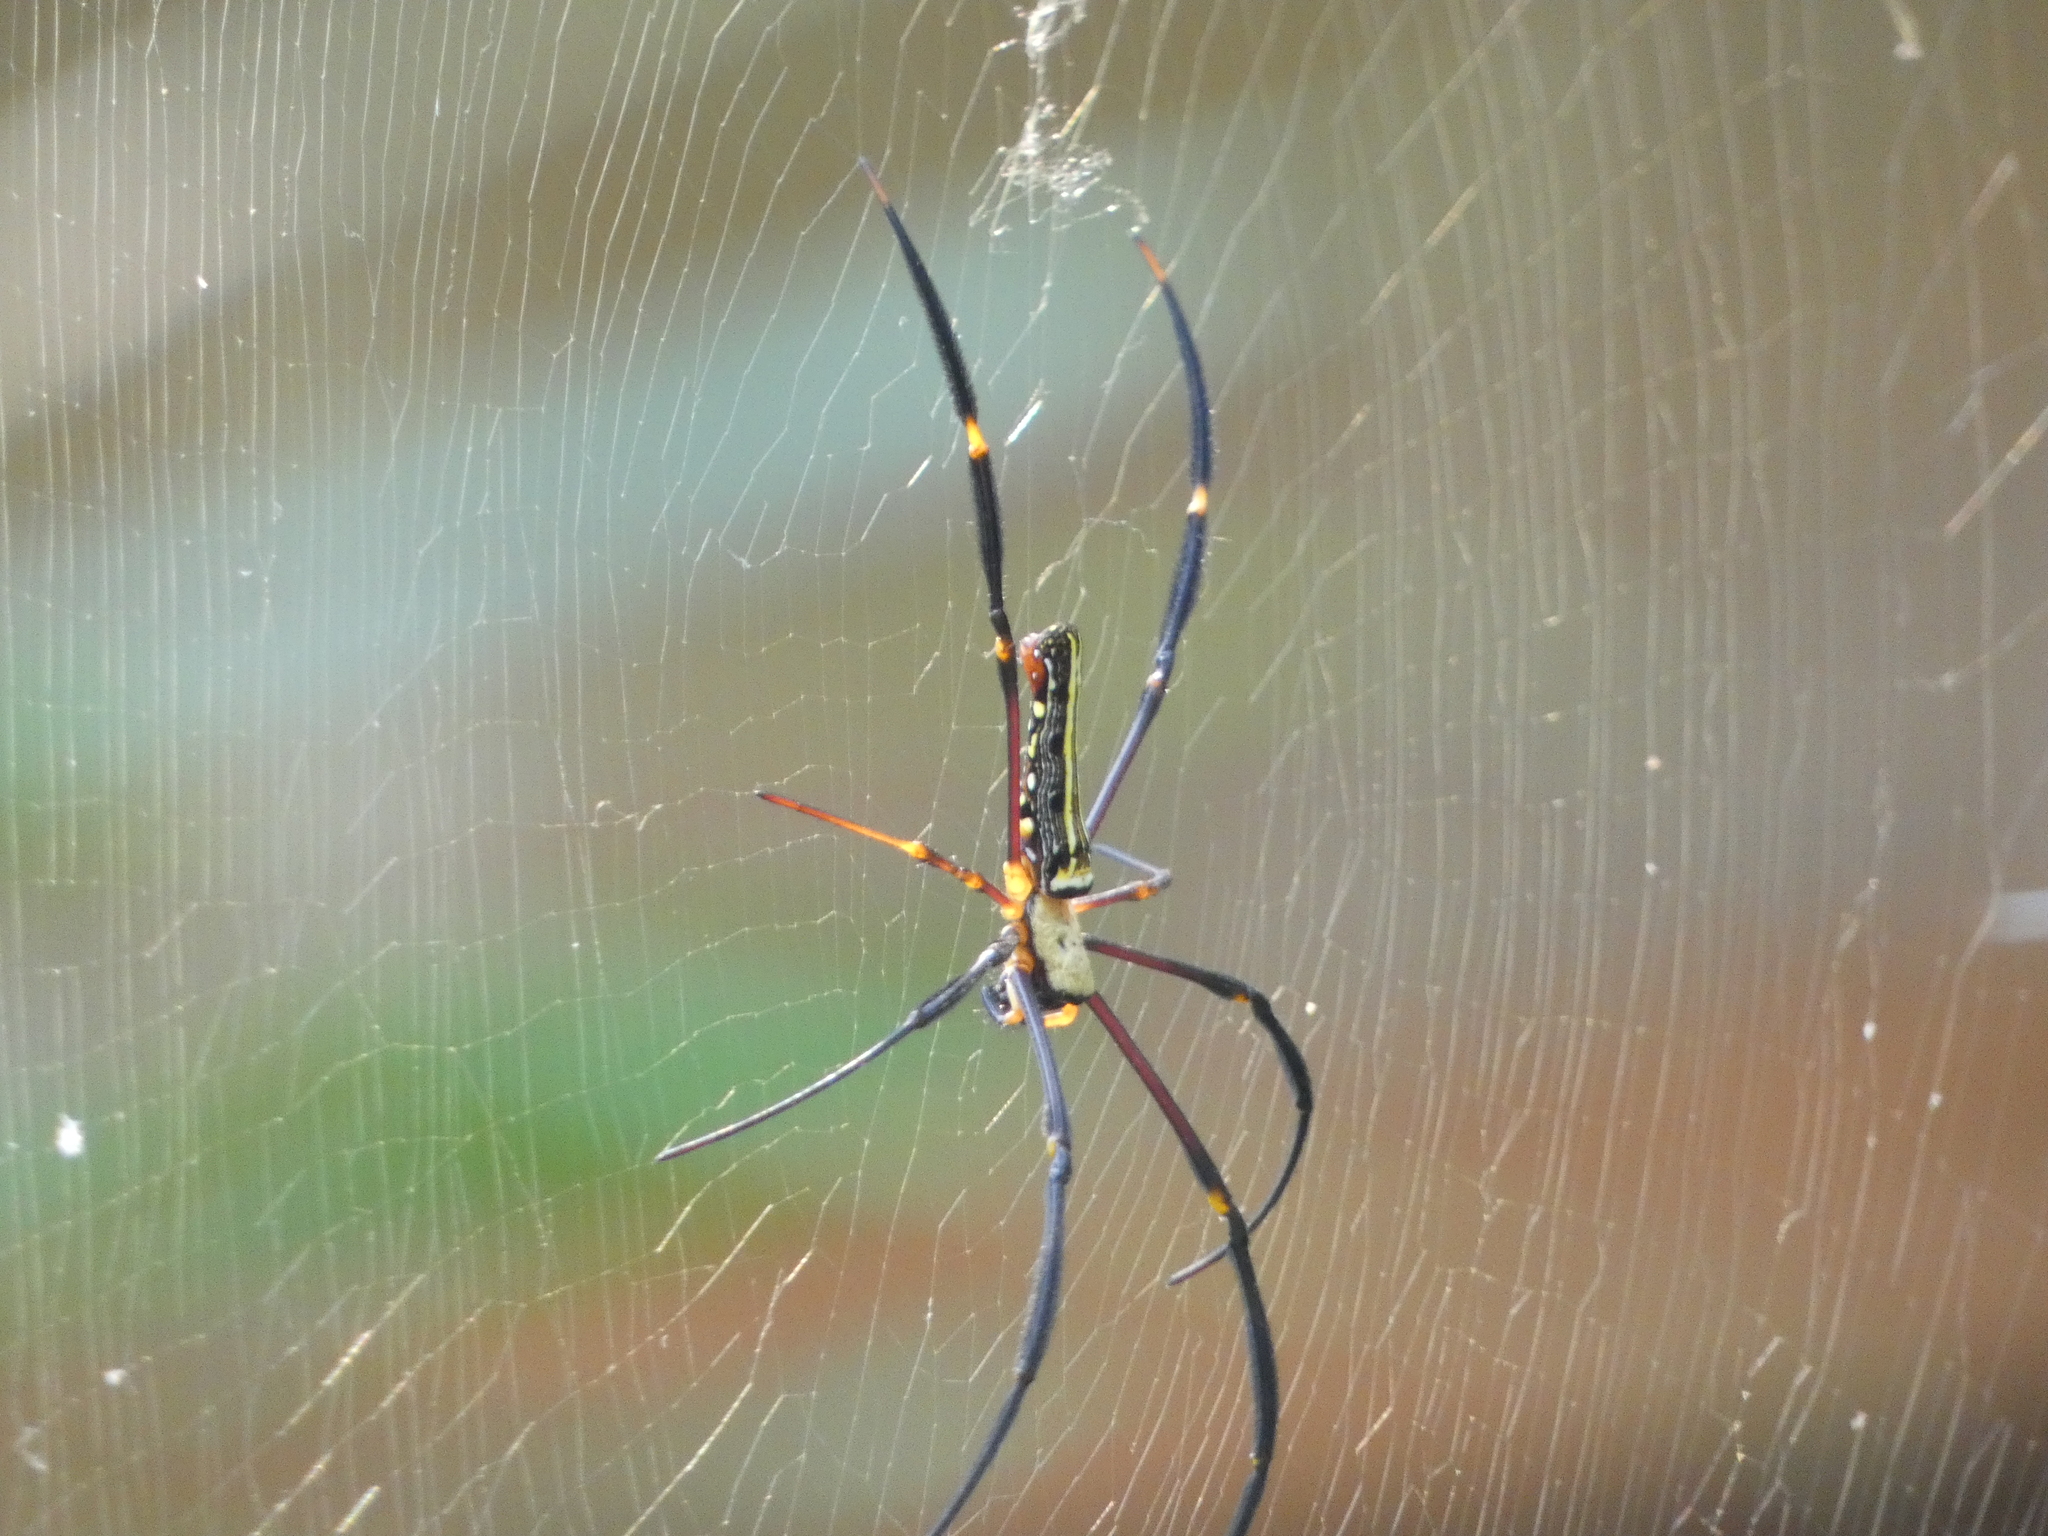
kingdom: Animalia
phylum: Arthropoda
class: Arachnida
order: Araneae
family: Araneidae
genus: Nephila
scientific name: Nephila pilipes
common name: Giant golden orb weaver
